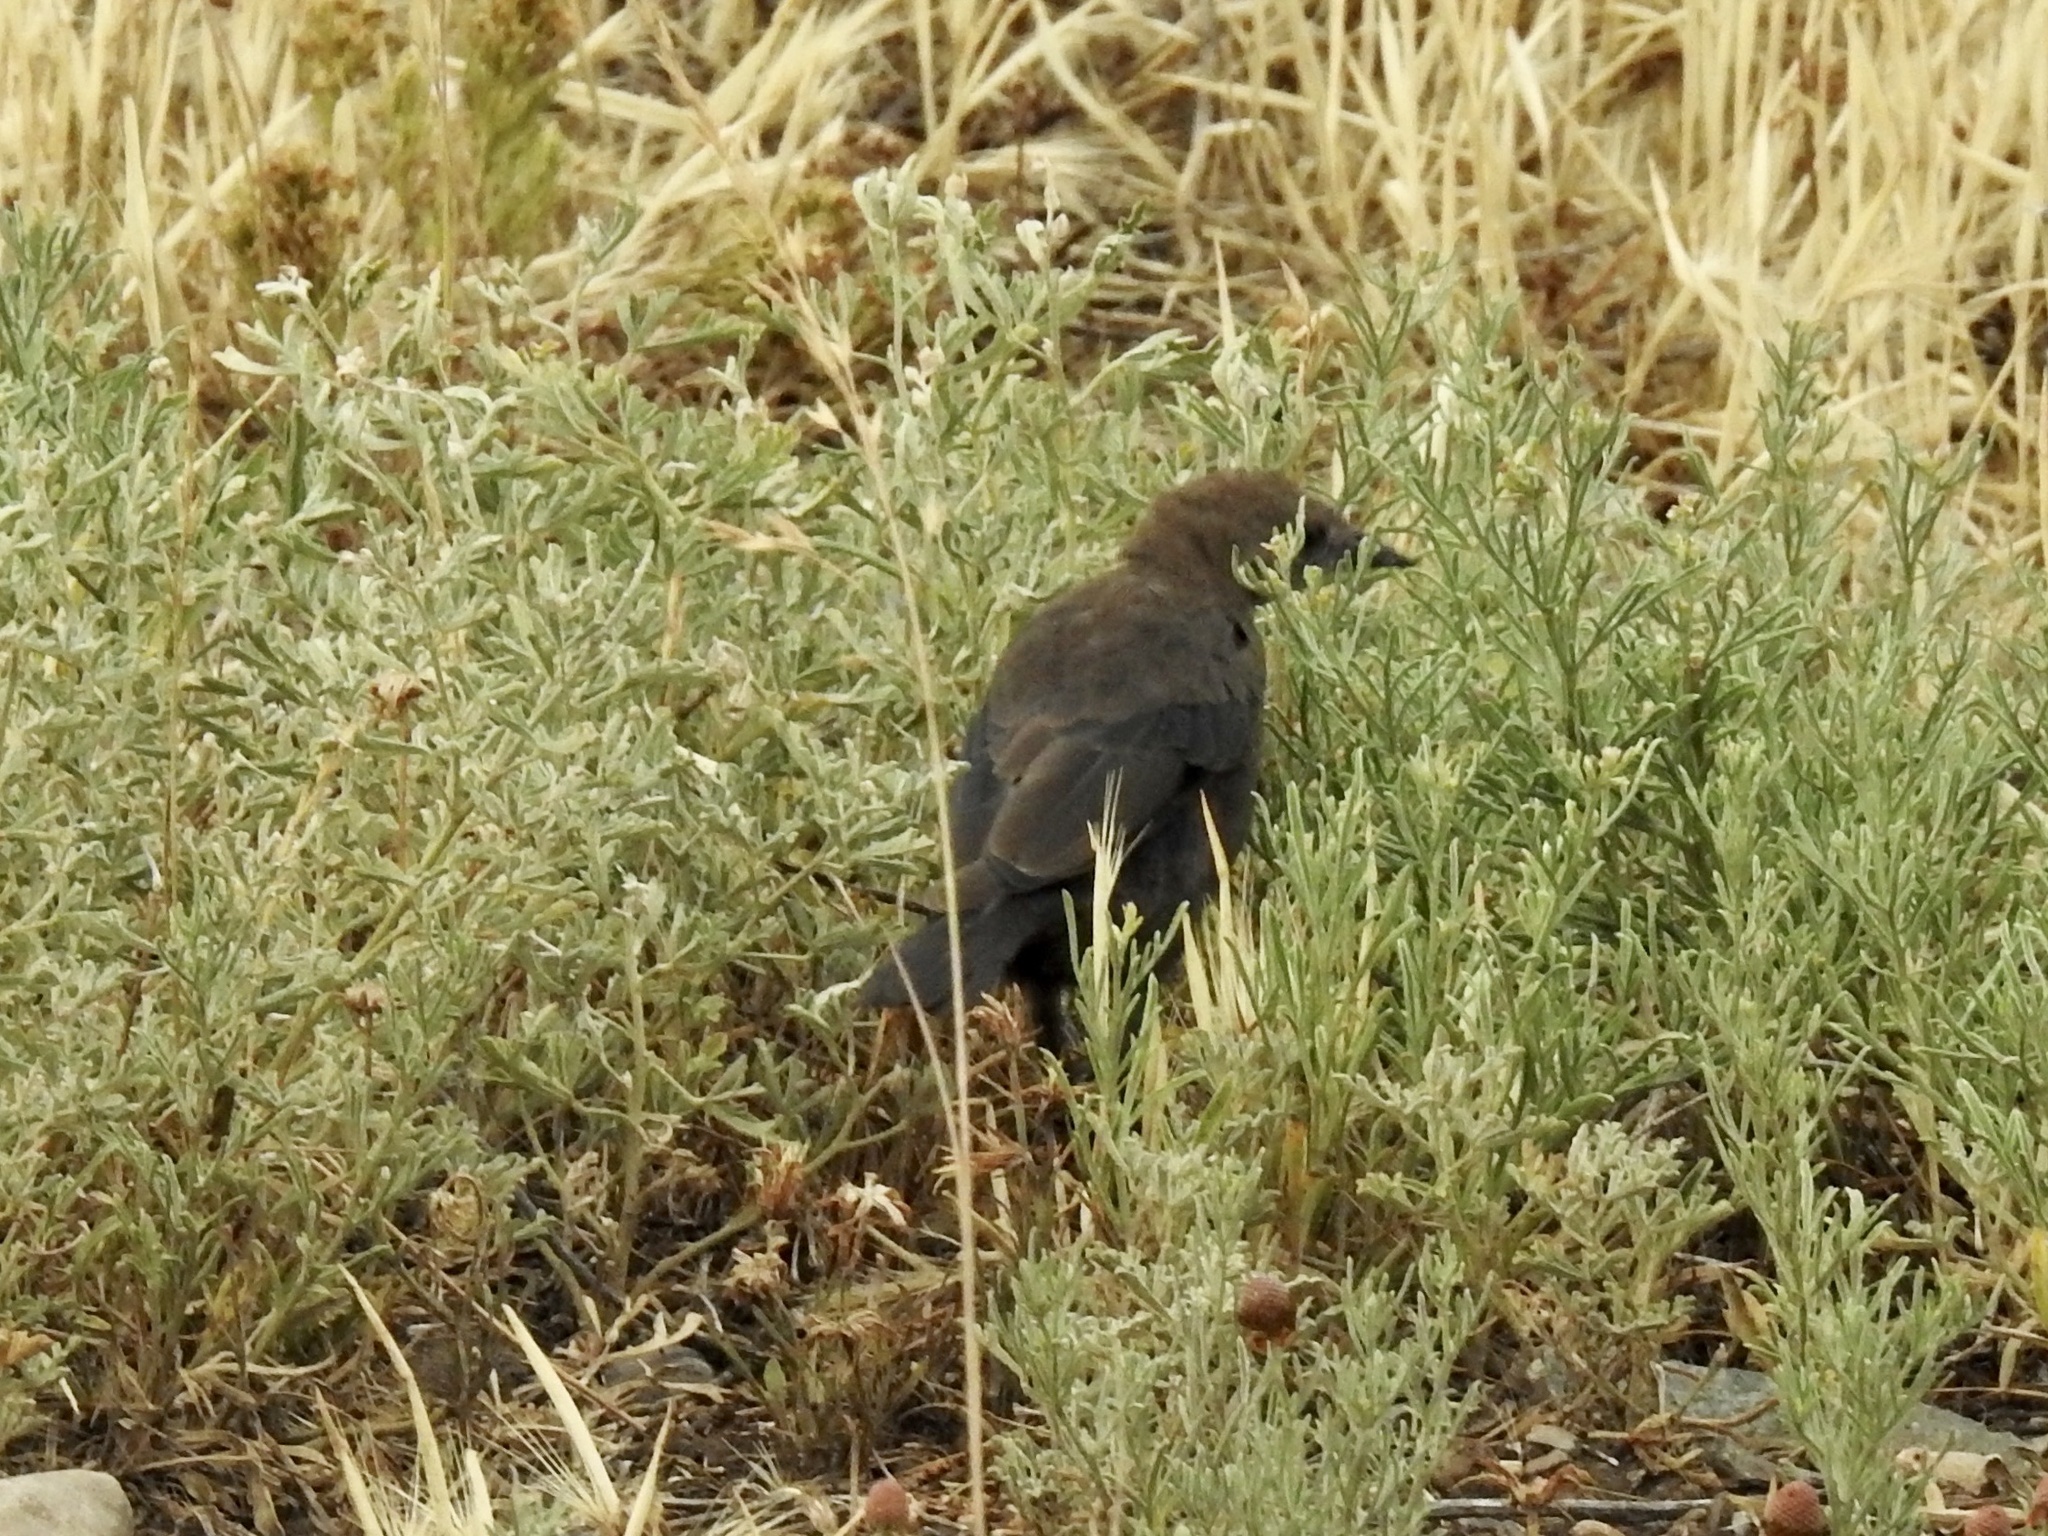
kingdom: Animalia
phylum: Chordata
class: Aves
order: Passeriformes
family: Icteridae
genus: Euphagus
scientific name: Euphagus cyanocephalus
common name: Brewer's blackbird
